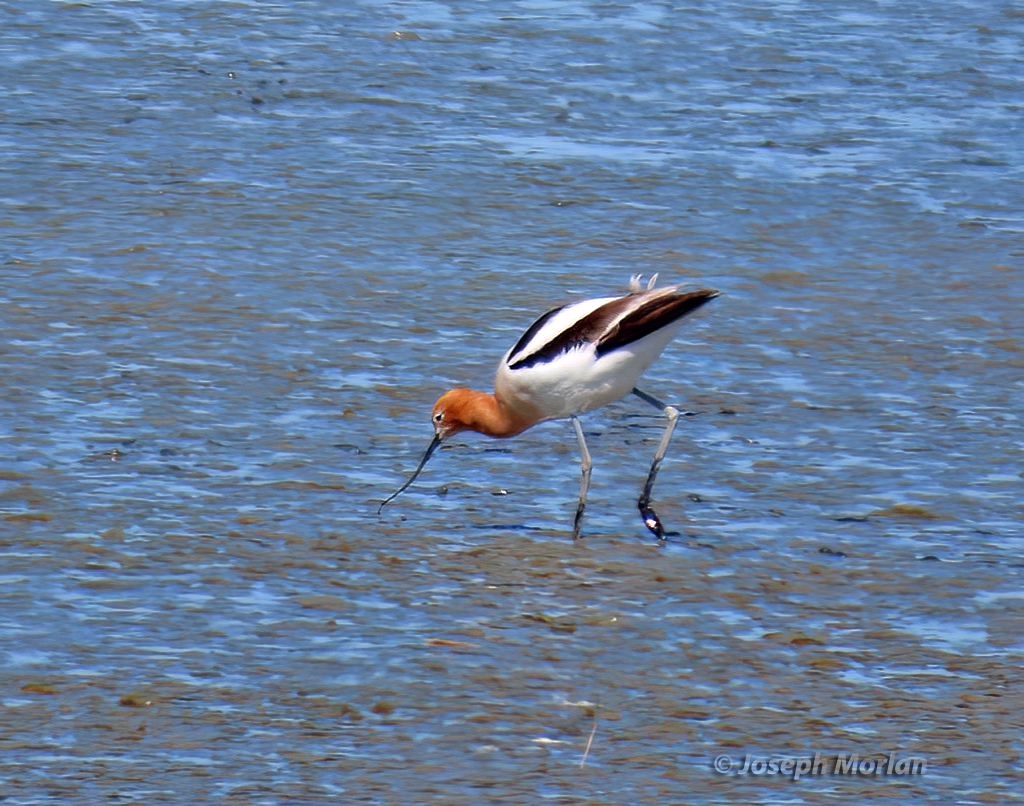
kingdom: Animalia
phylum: Chordata
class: Aves
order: Charadriiformes
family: Recurvirostridae
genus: Recurvirostra
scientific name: Recurvirostra americana
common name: American avocet
